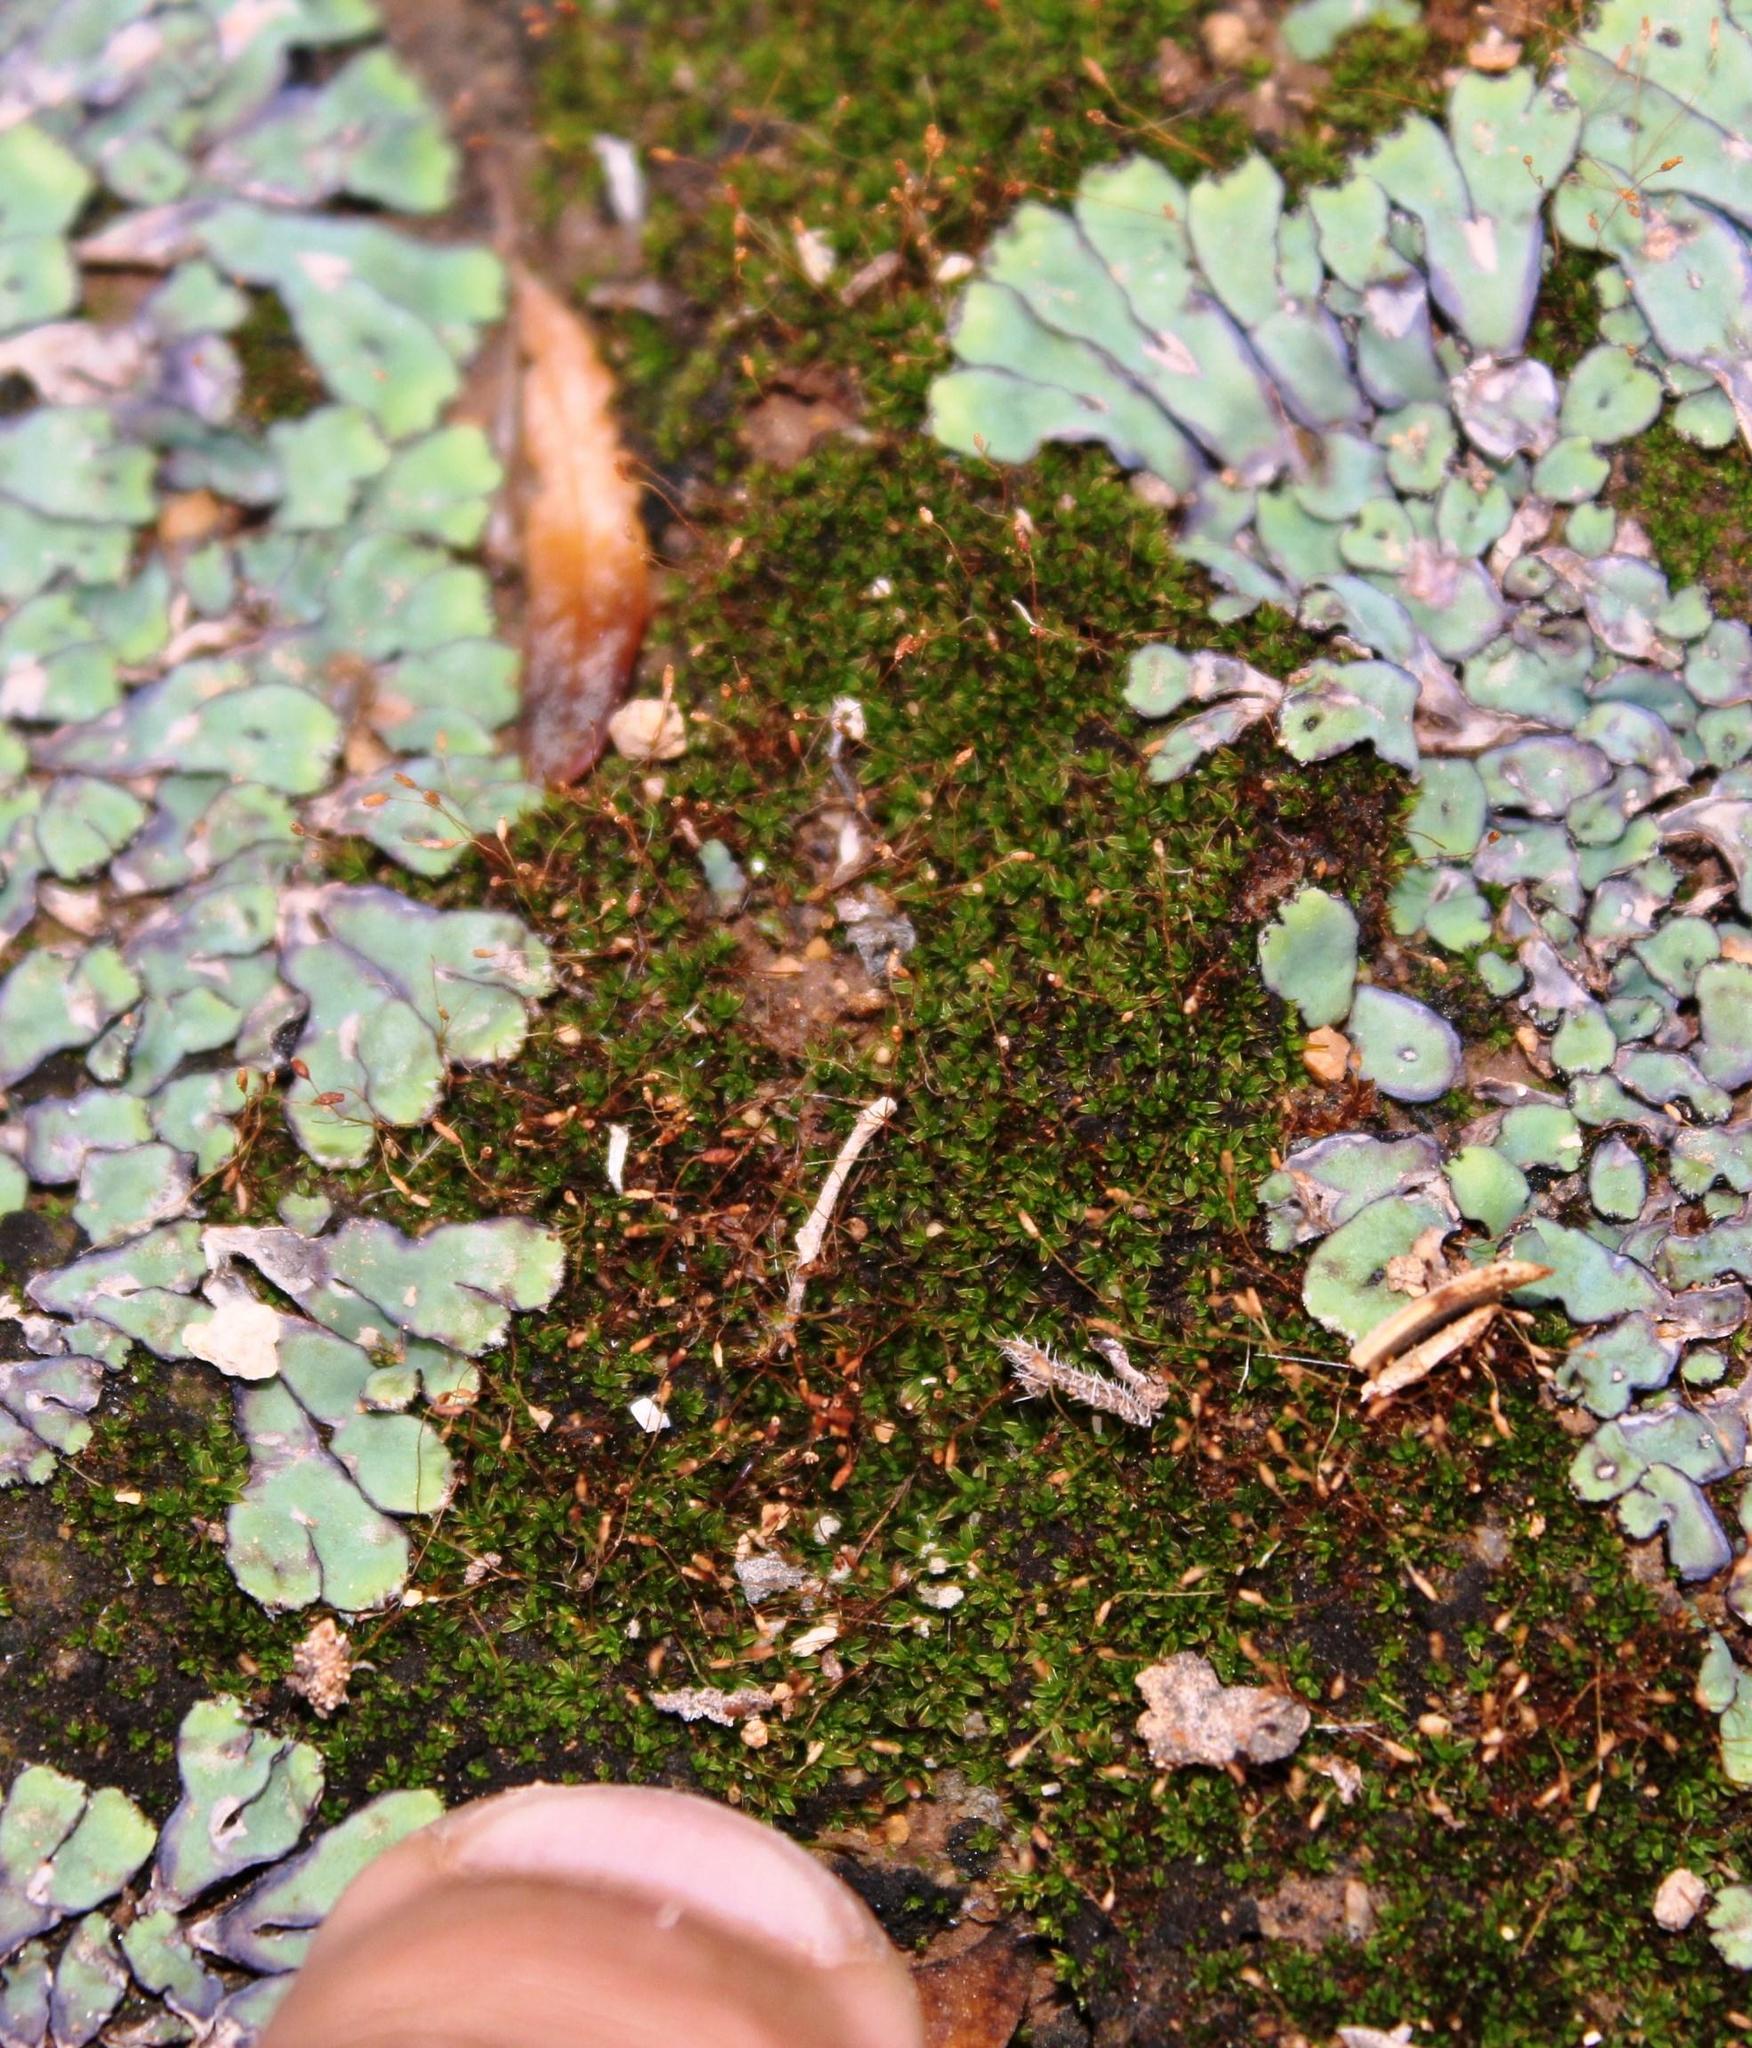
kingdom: Plantae
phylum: Bryophyta
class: Bryopsida
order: Pottiales
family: Pottiaceae
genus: Tortula
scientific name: Tortula atrovirens
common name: Rib-leaf moss
